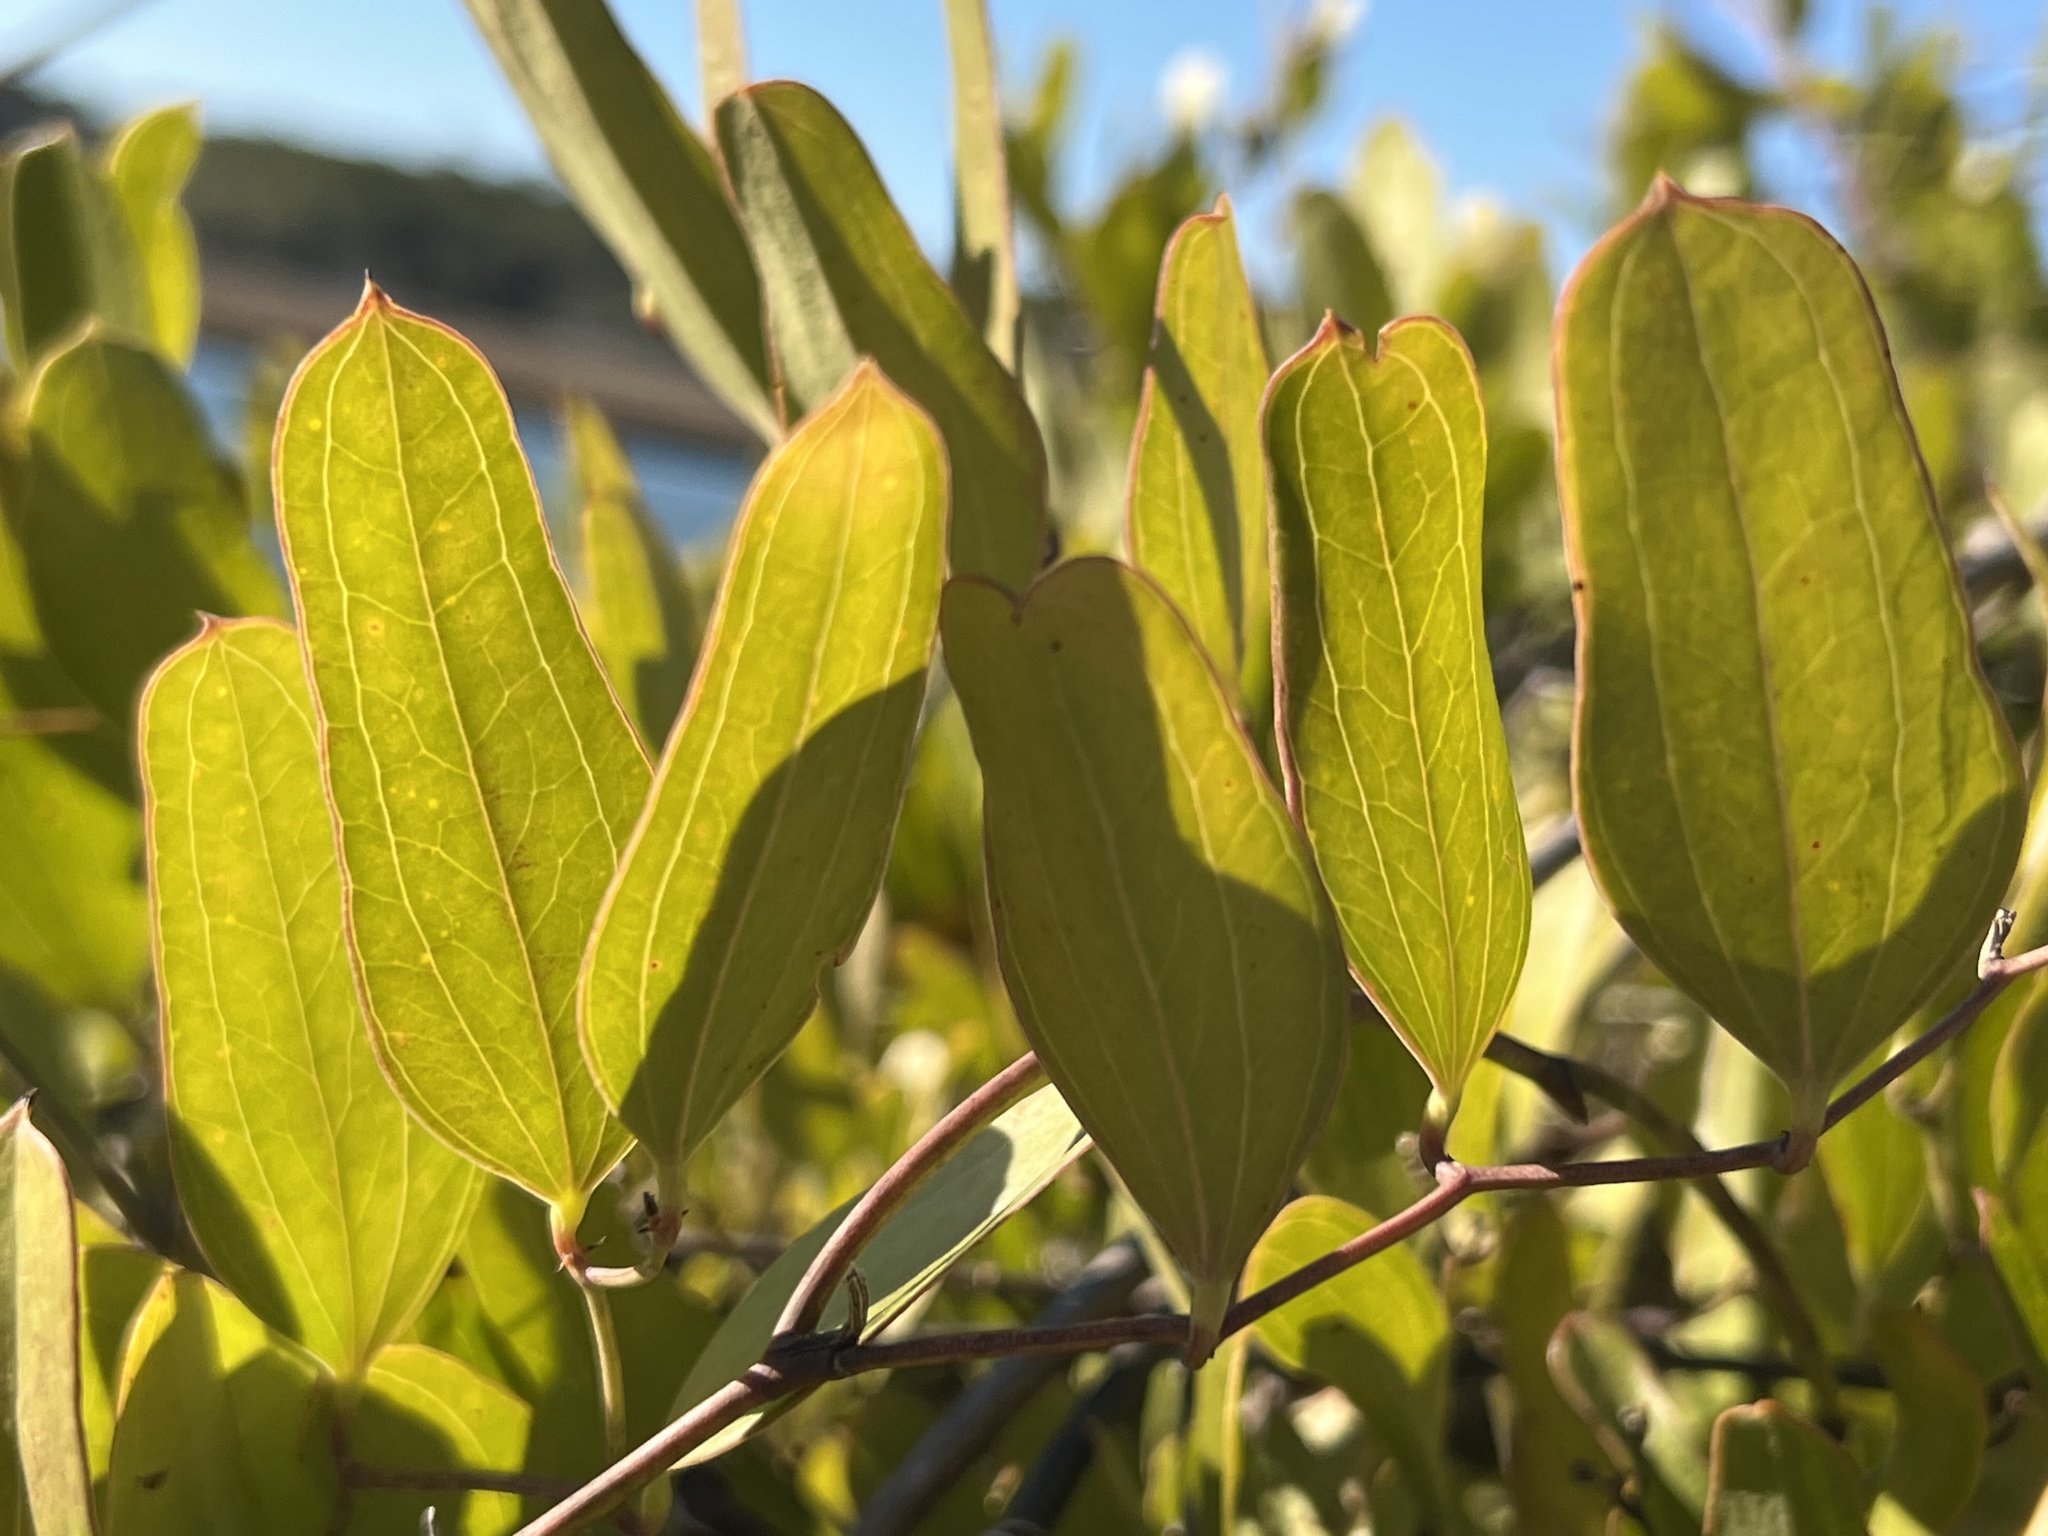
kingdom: Plantae
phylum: Tracheophyta
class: Liliopsida
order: Liliales
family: Smilacaceae
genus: Smilax
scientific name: Smilax auriculata
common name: Wild bamboo
